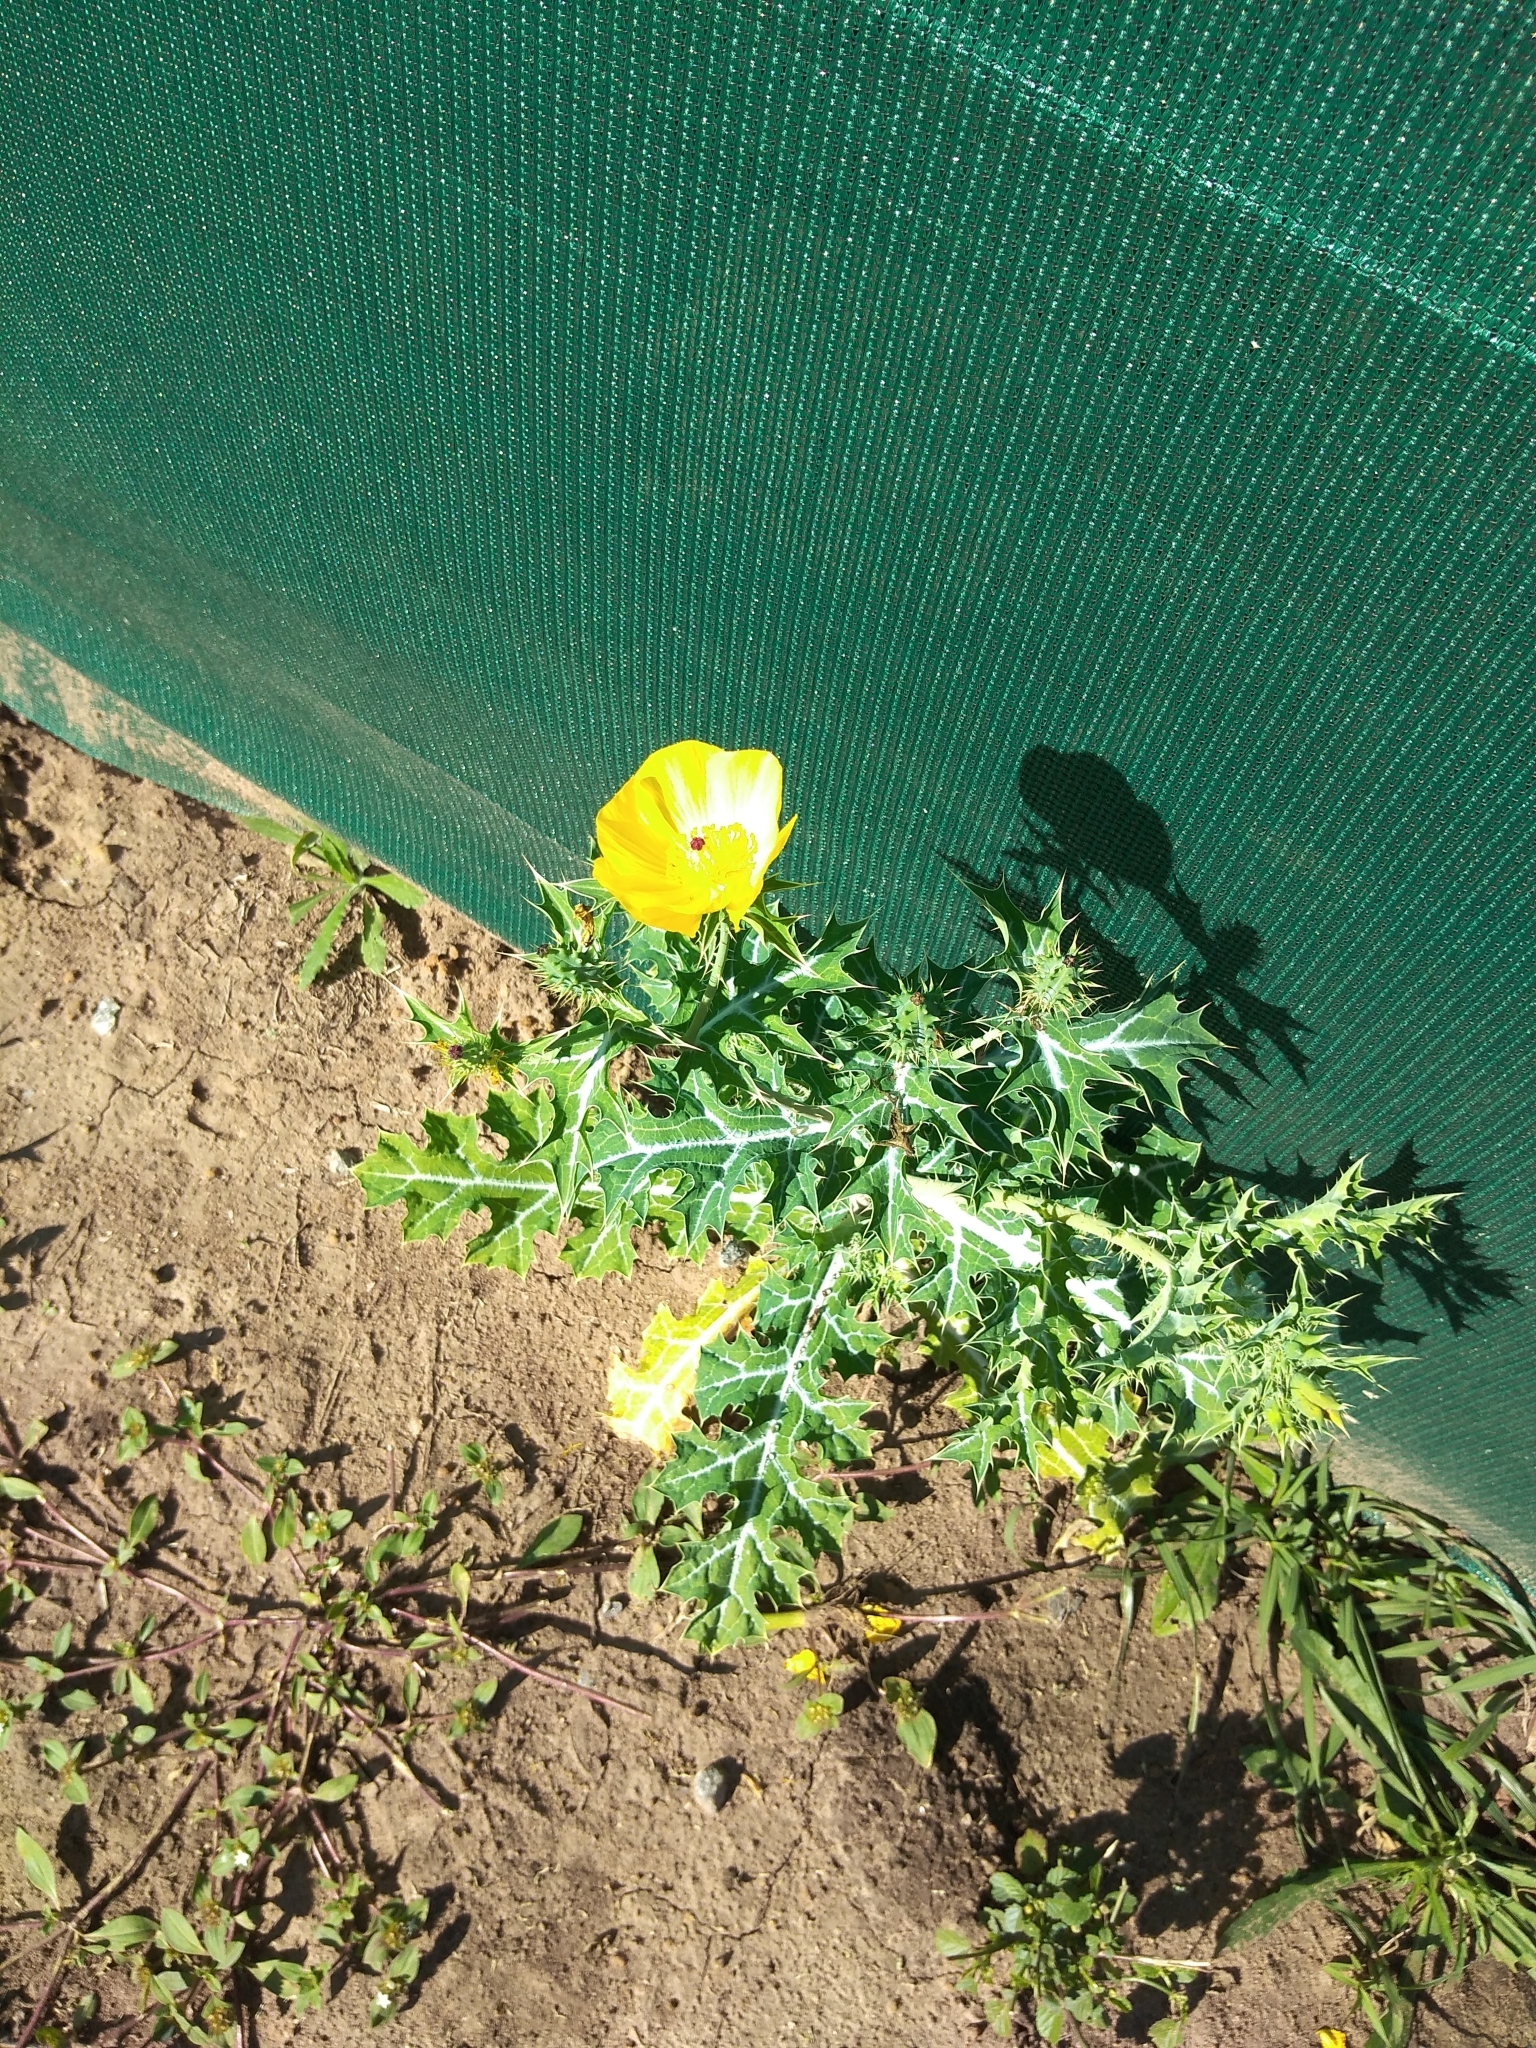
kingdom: Plantae
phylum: Tracheophyta
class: Magnoliopsida
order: Ranunculales
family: Papaveraceae
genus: Argemone
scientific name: Argemone mexicana
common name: Mexican poppy
